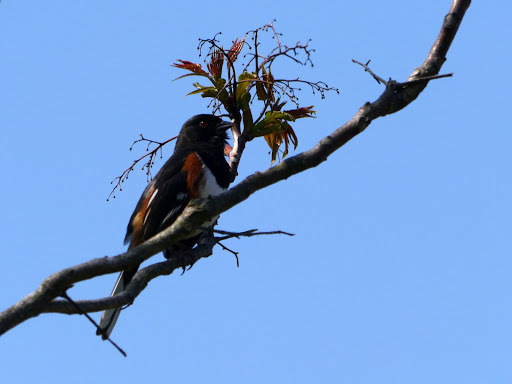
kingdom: Animalia
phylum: Chordata
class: Aves
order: Passeriformes
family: Passerellidae
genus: Pipilo
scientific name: Pipilo erythrophthalmus
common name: Eastern towhee
